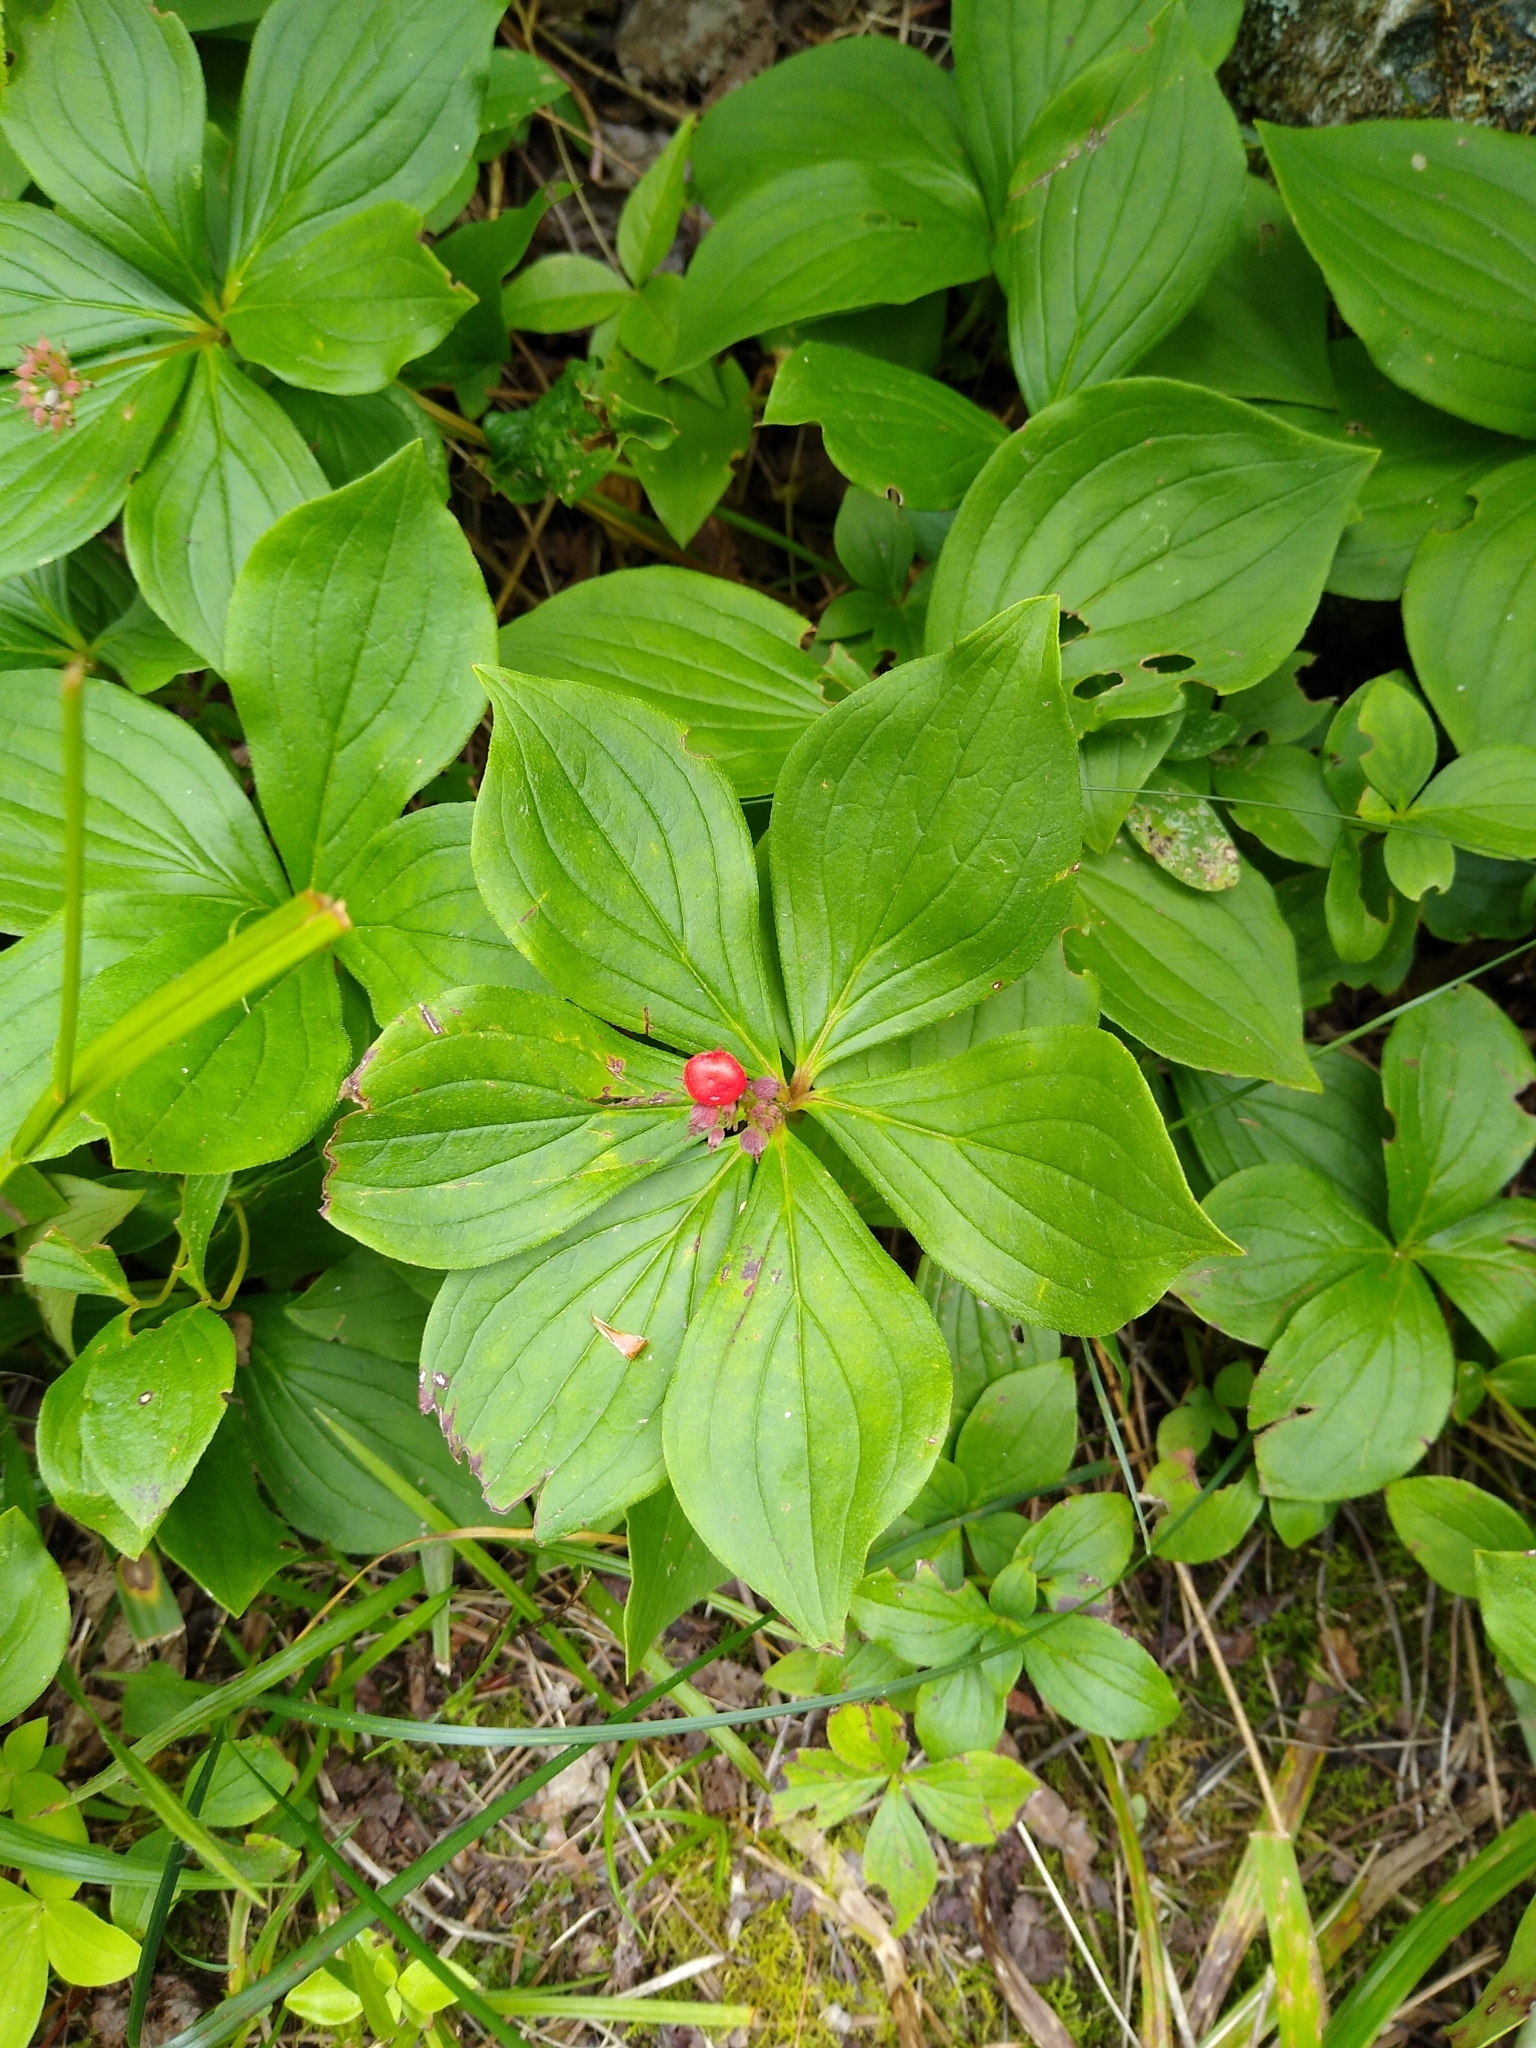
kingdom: Plantae
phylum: Tracheophyta
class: Magnoliopsida
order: Cornales
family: Cornaceae
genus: Cornus
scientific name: Cornus canadensis
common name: Creeping dogwood
